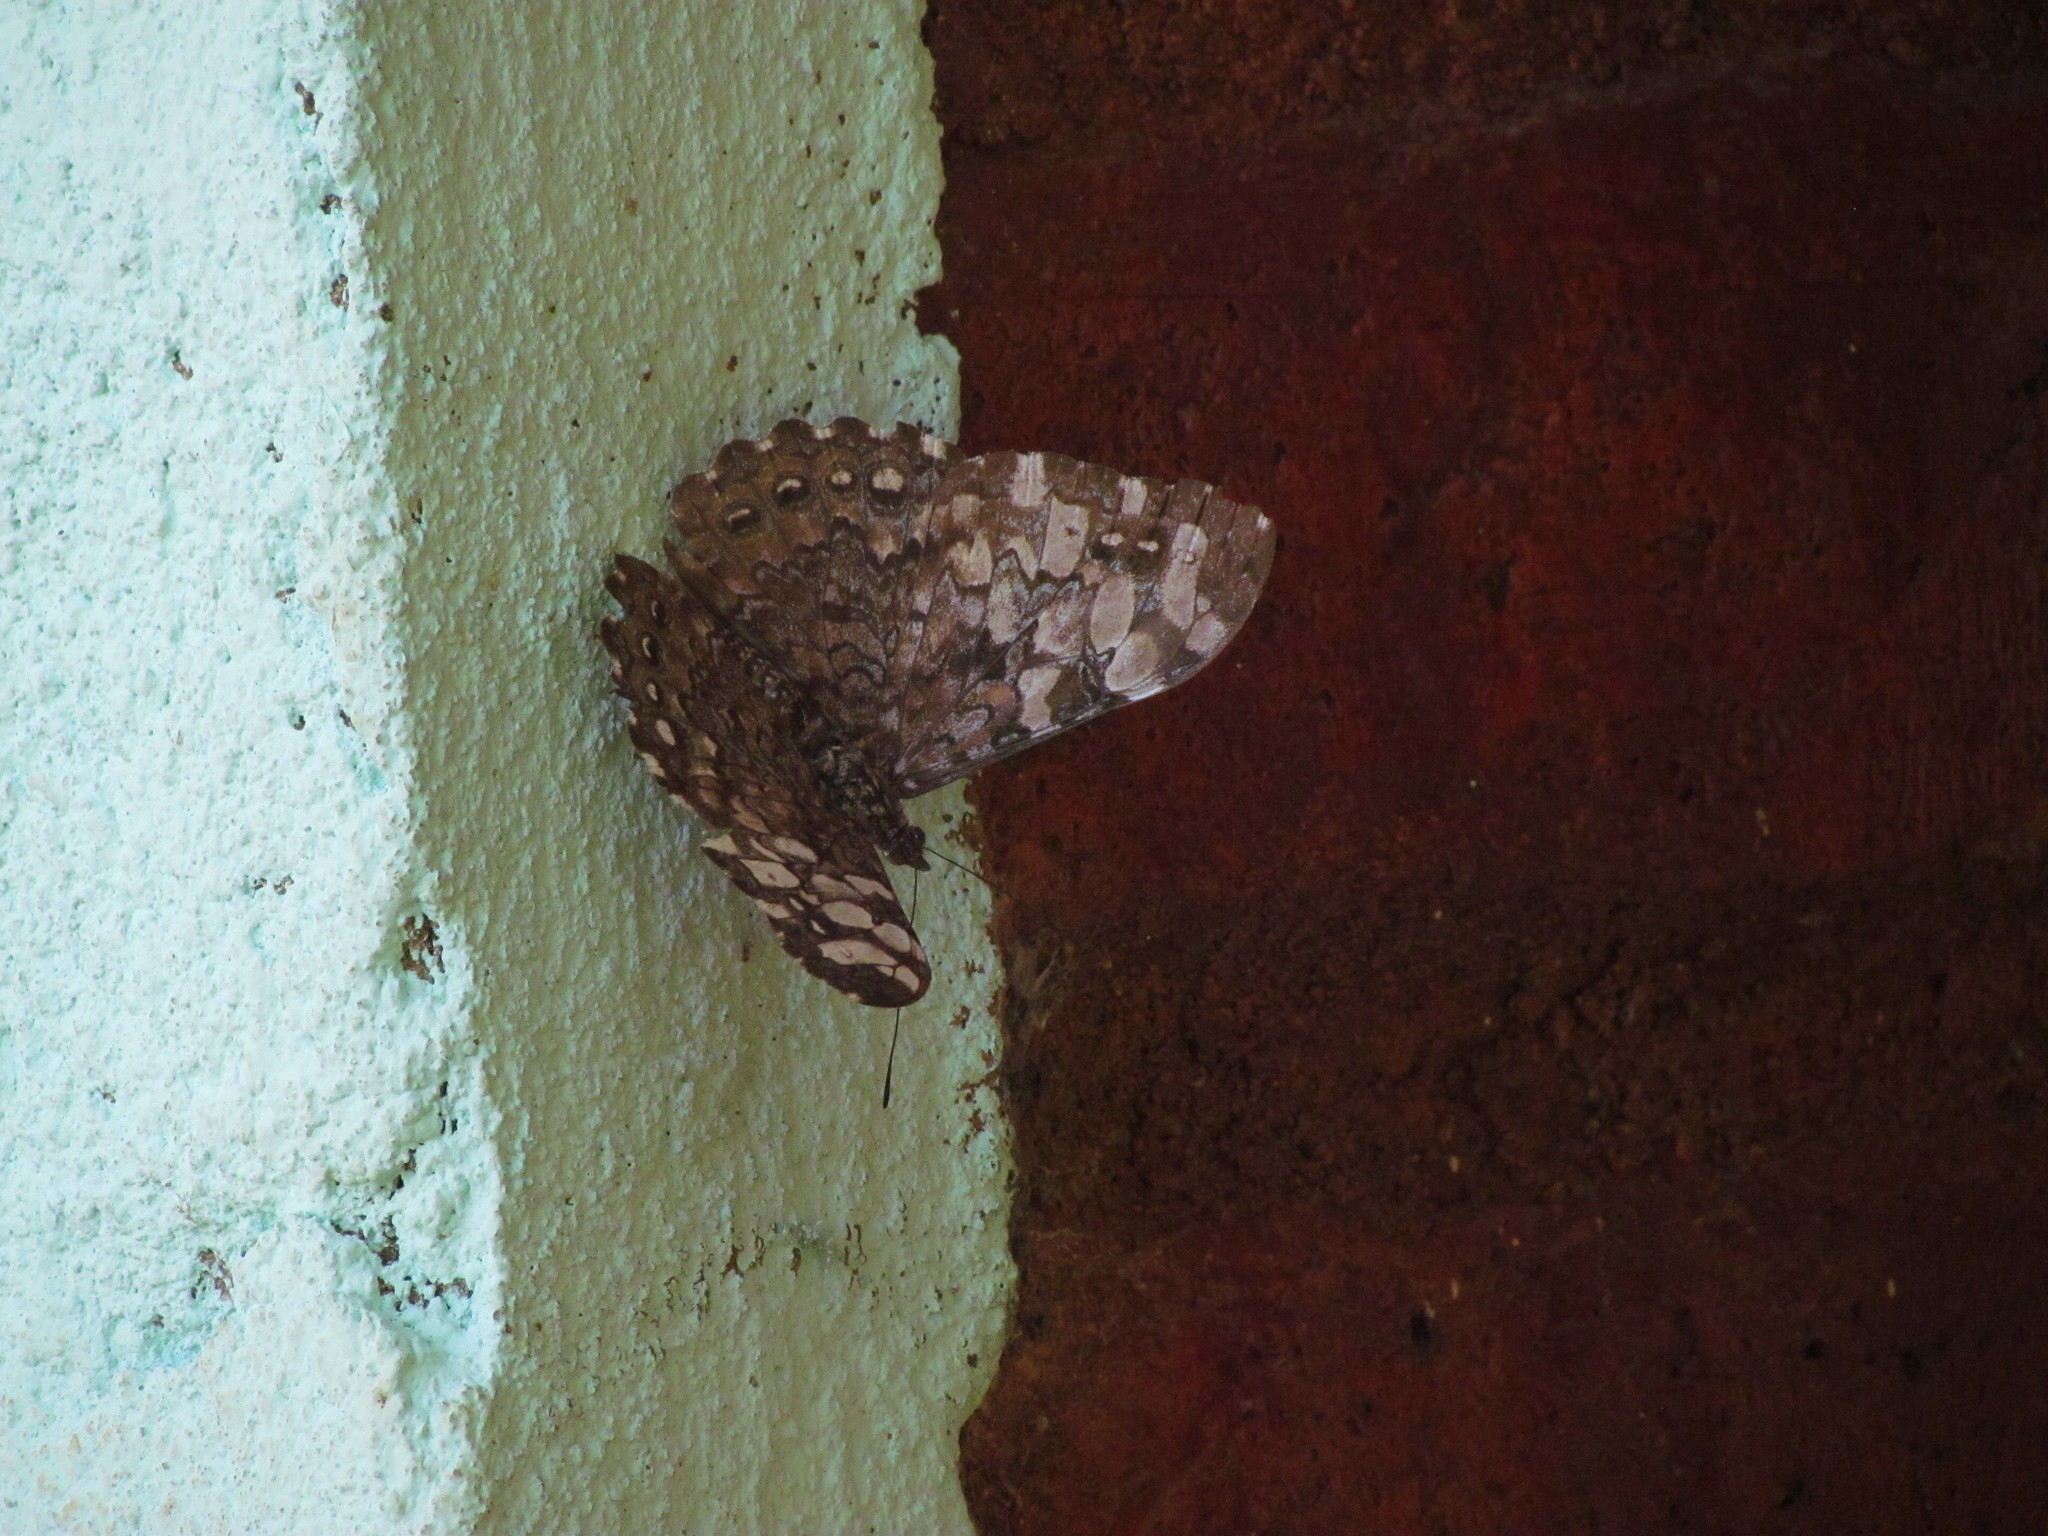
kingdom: Animalia
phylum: Arthropoda
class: Insecta
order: Lepidoptera
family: Nymphalidae
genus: Hamadryas
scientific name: Hamadryas epinome
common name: Epinome cracker
